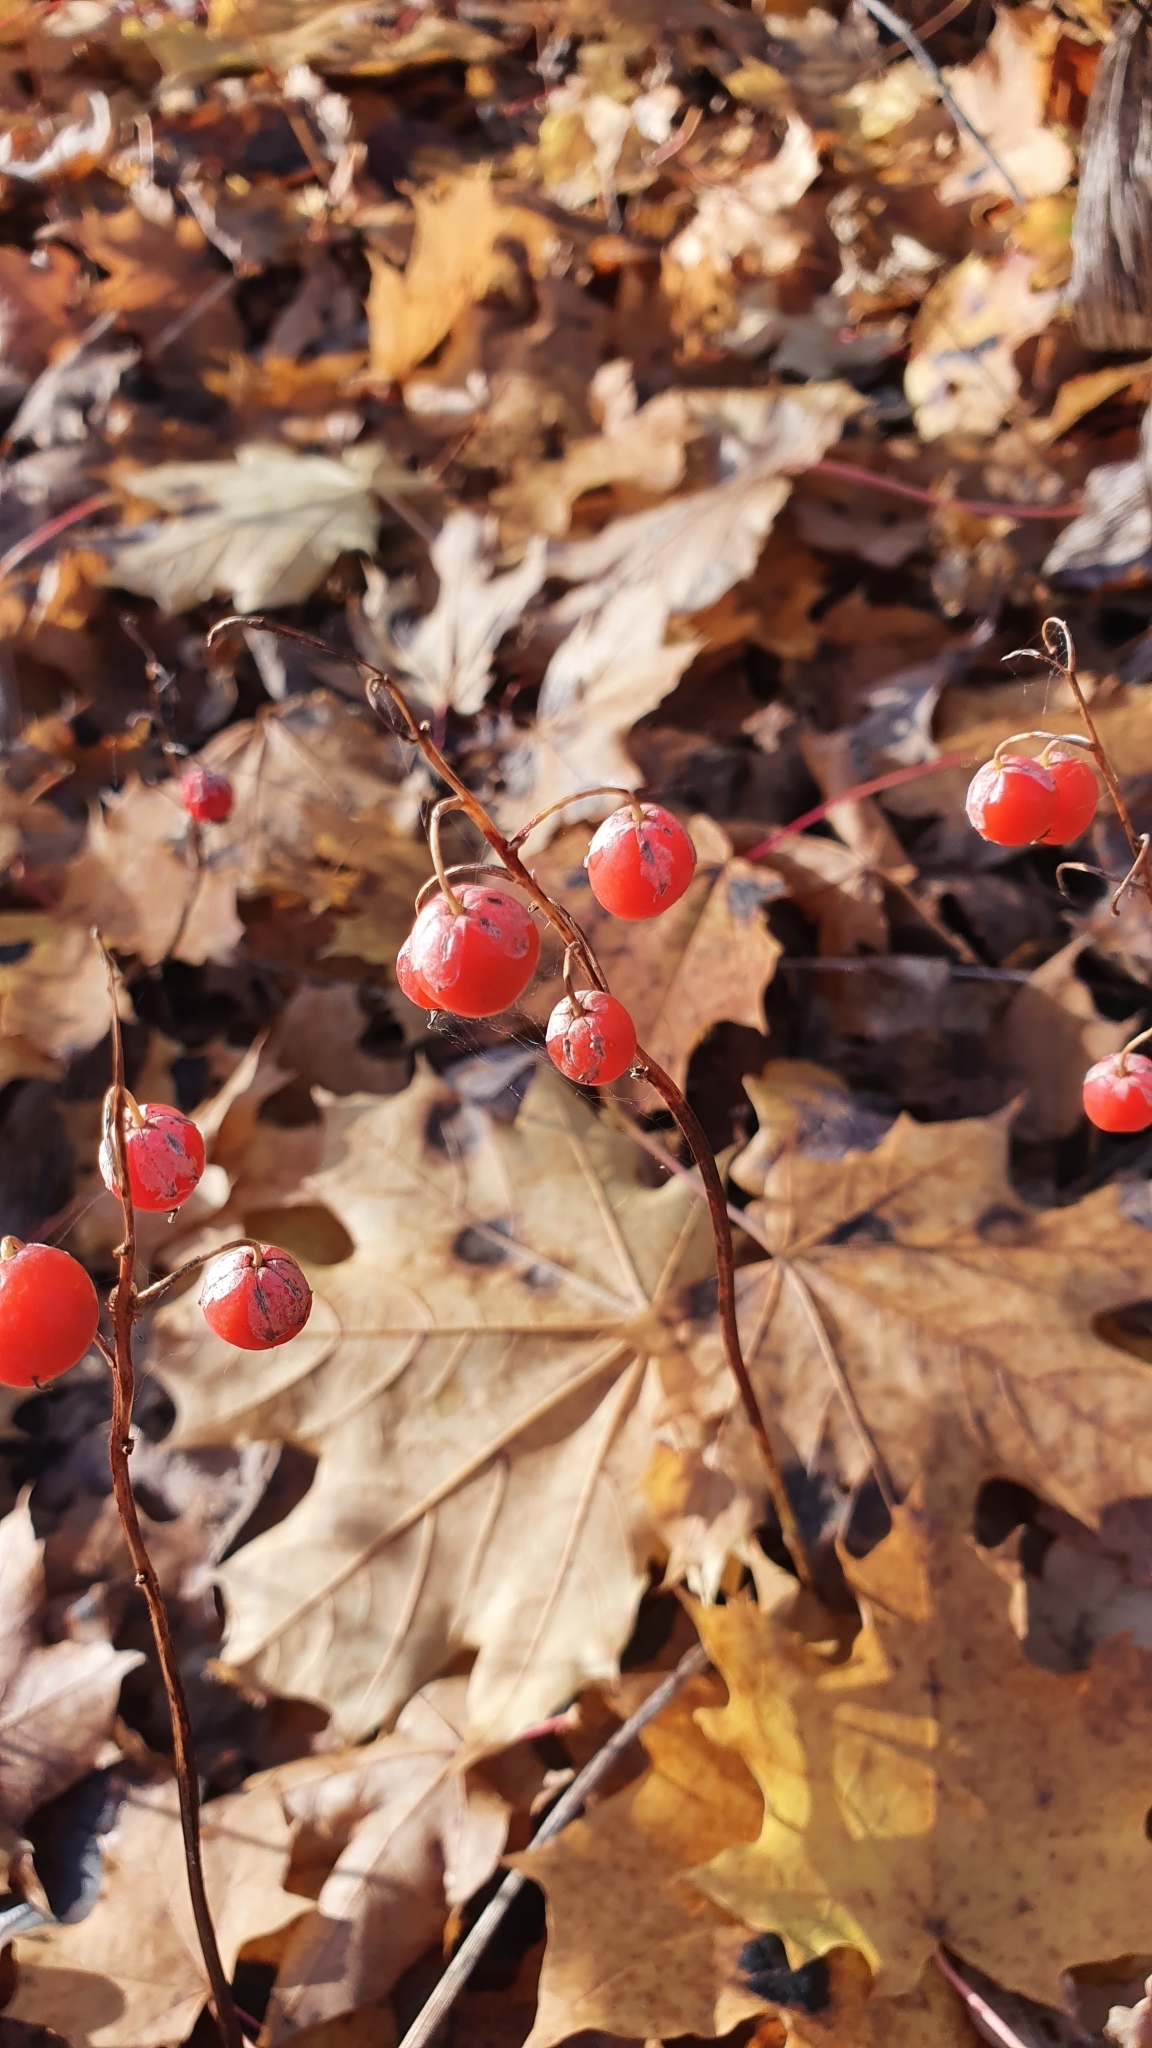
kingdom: Plantae
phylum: Tracheophyta
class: Liliopsida
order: Asparagales
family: Asparagaceae
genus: Convallaria
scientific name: Convallaria majalis
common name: Lily-of-the-valley
